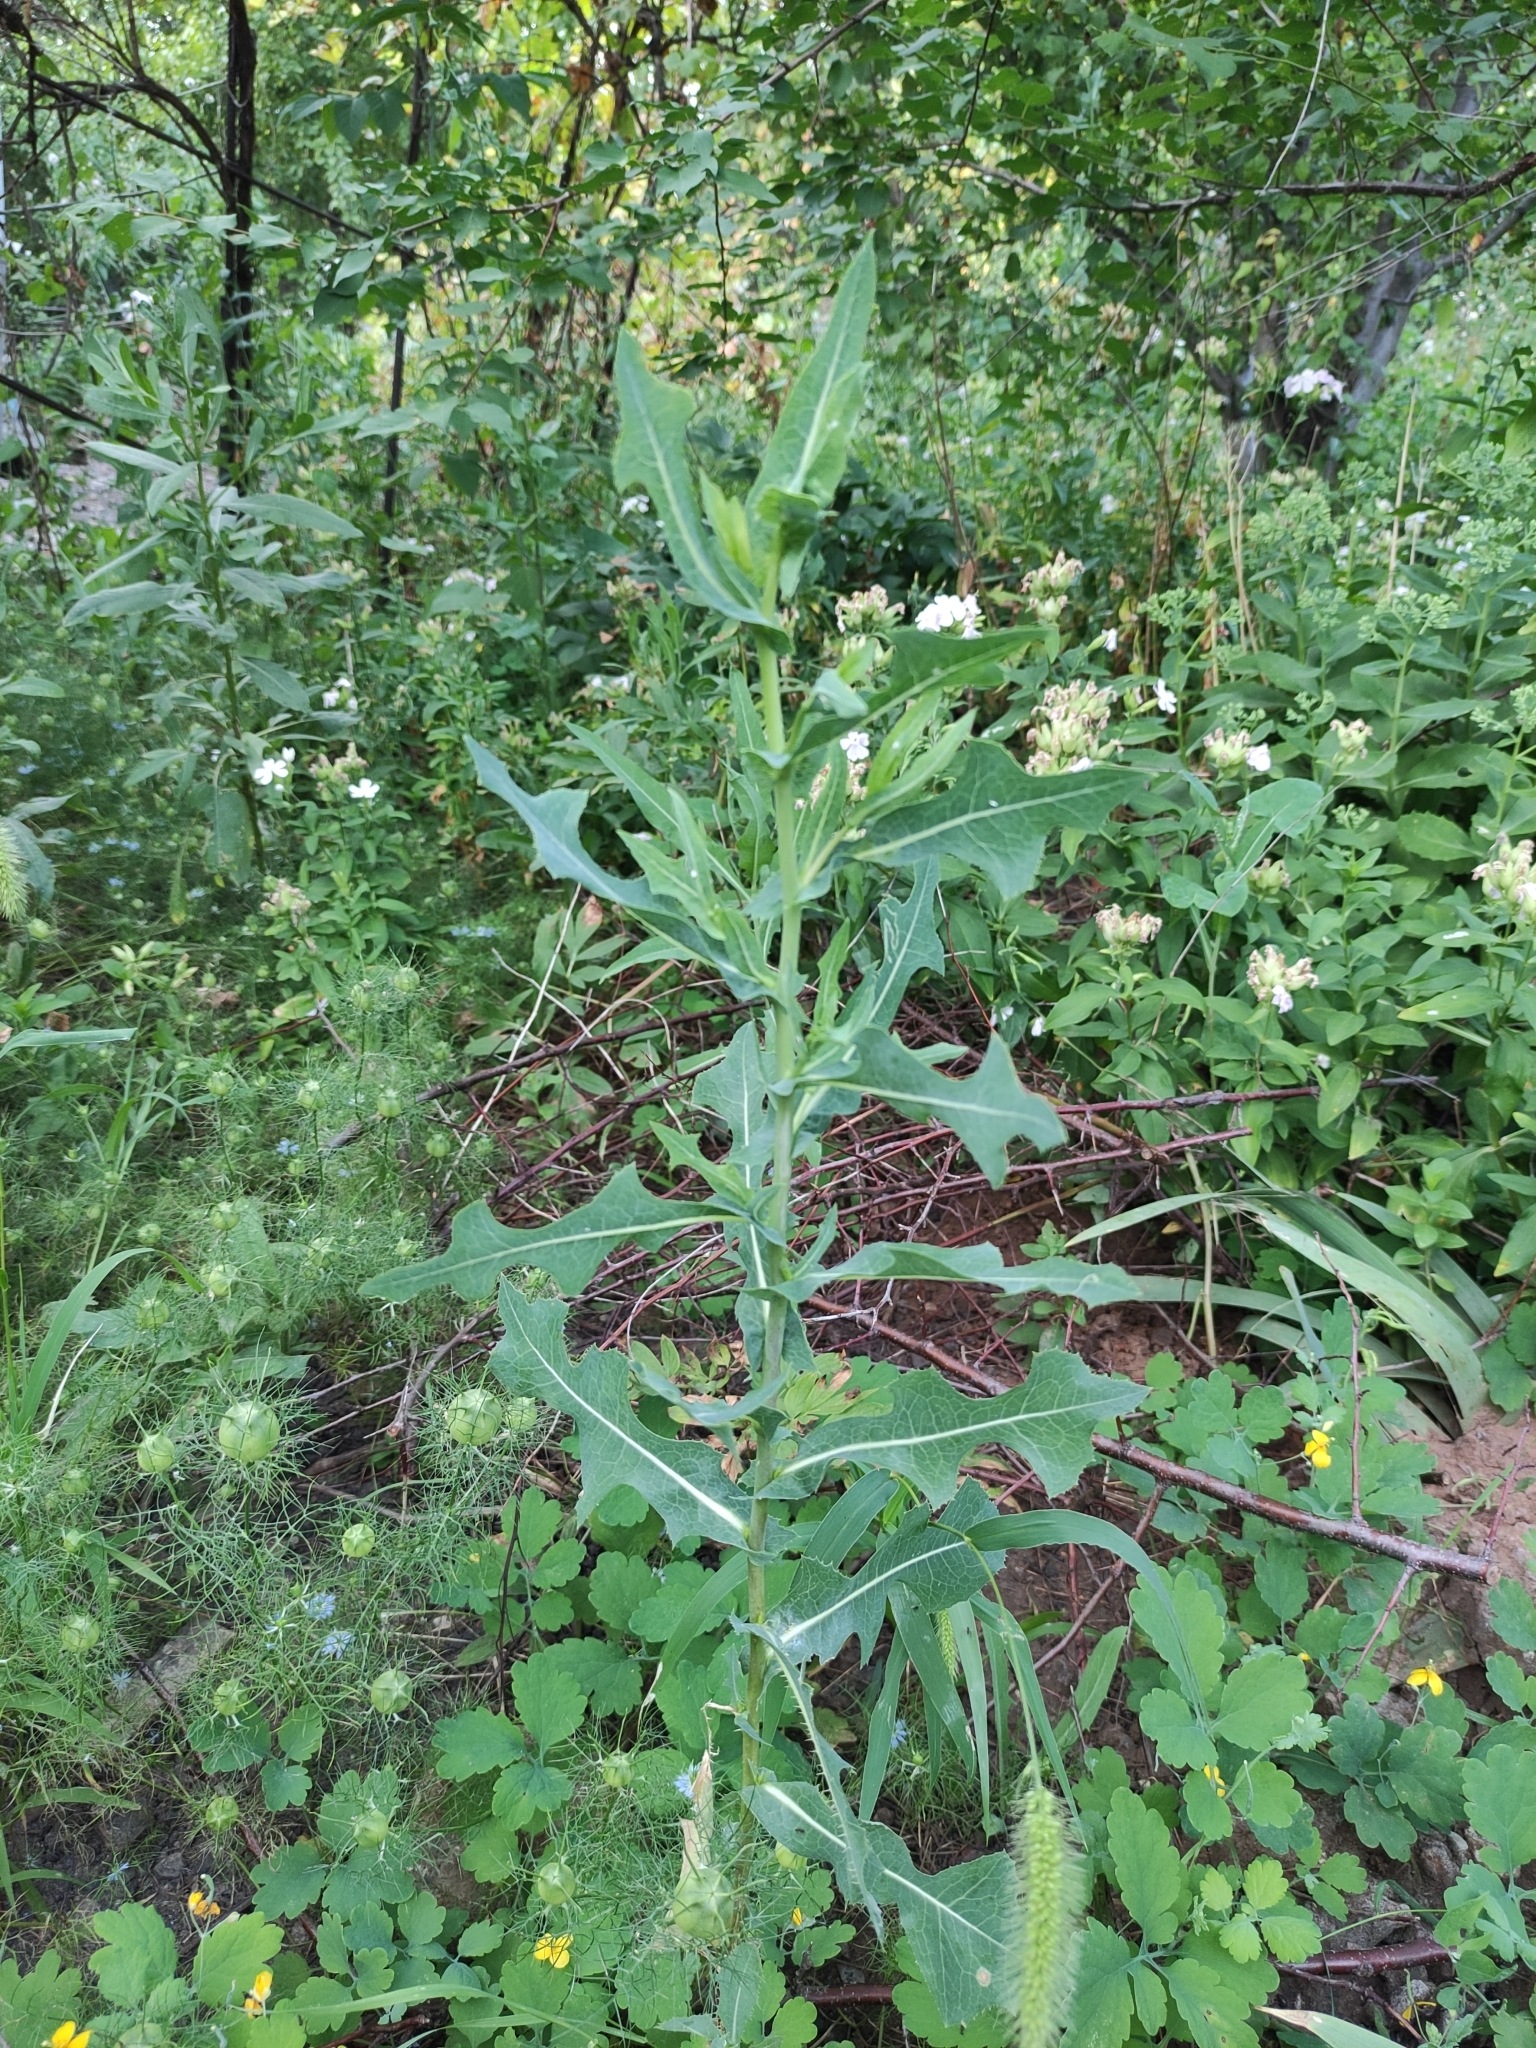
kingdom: Plantae
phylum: Tracheophyta
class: Magnoliopsida
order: Asterales
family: Asteraceae
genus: Lactuca
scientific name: Lactuca serriola
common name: Prickly lettuce
